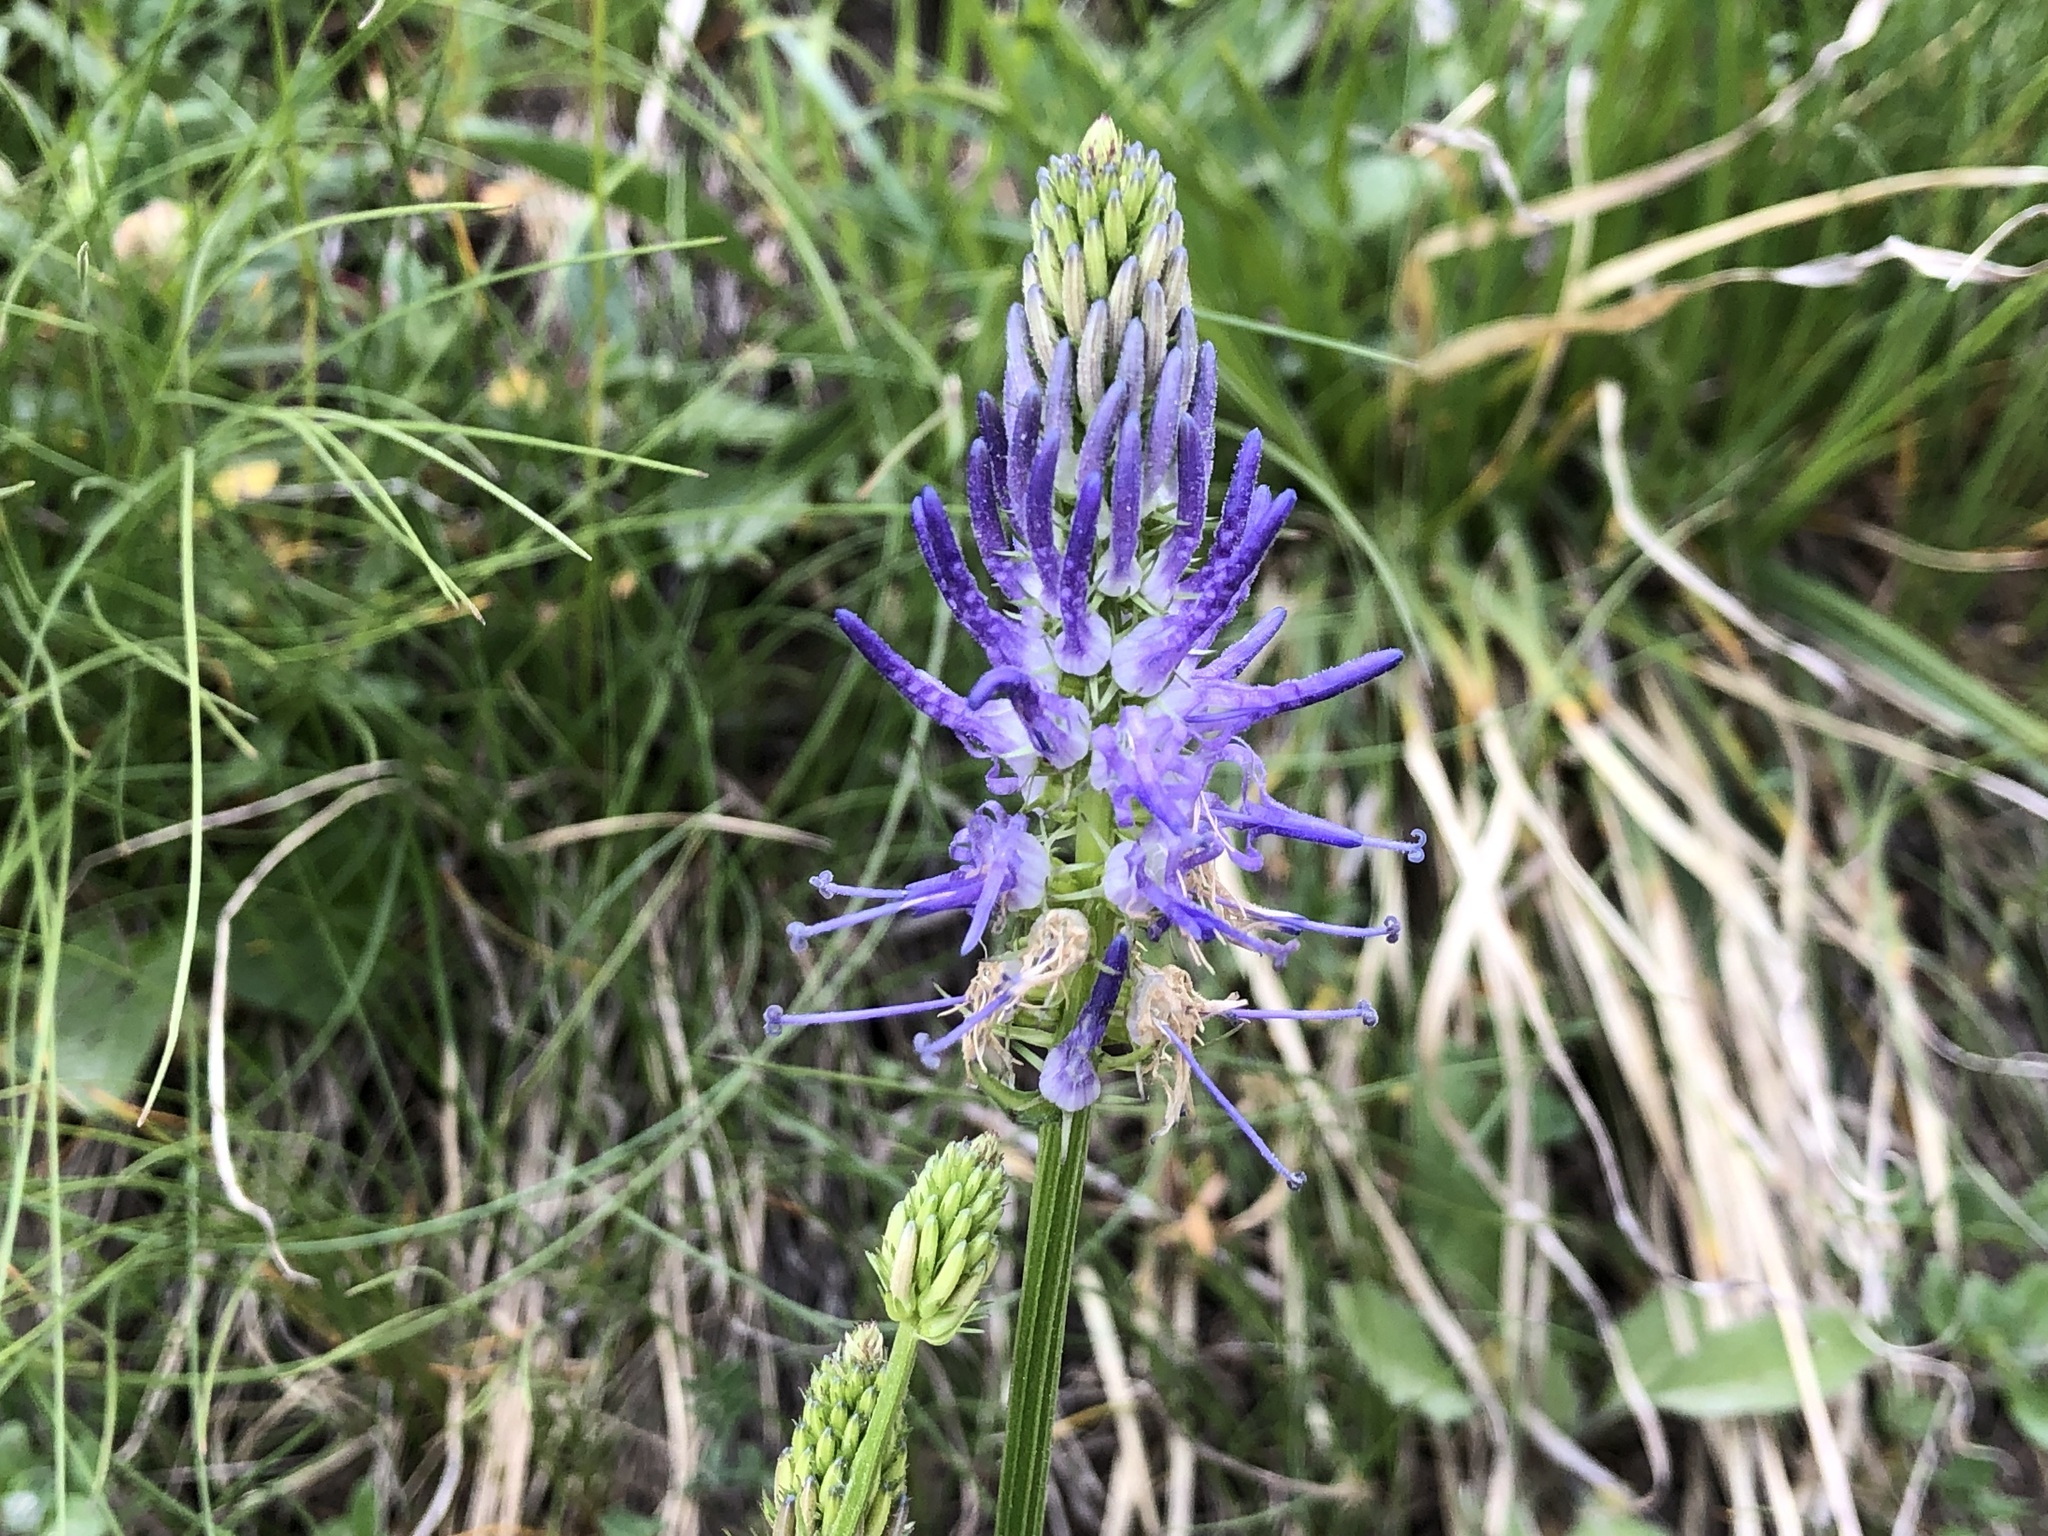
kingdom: Plantae
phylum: Tracheophyta
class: Magnoliopsida
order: Asterales
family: Campanulaceae
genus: Phyteuma
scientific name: Phyteuma betonicifolium
